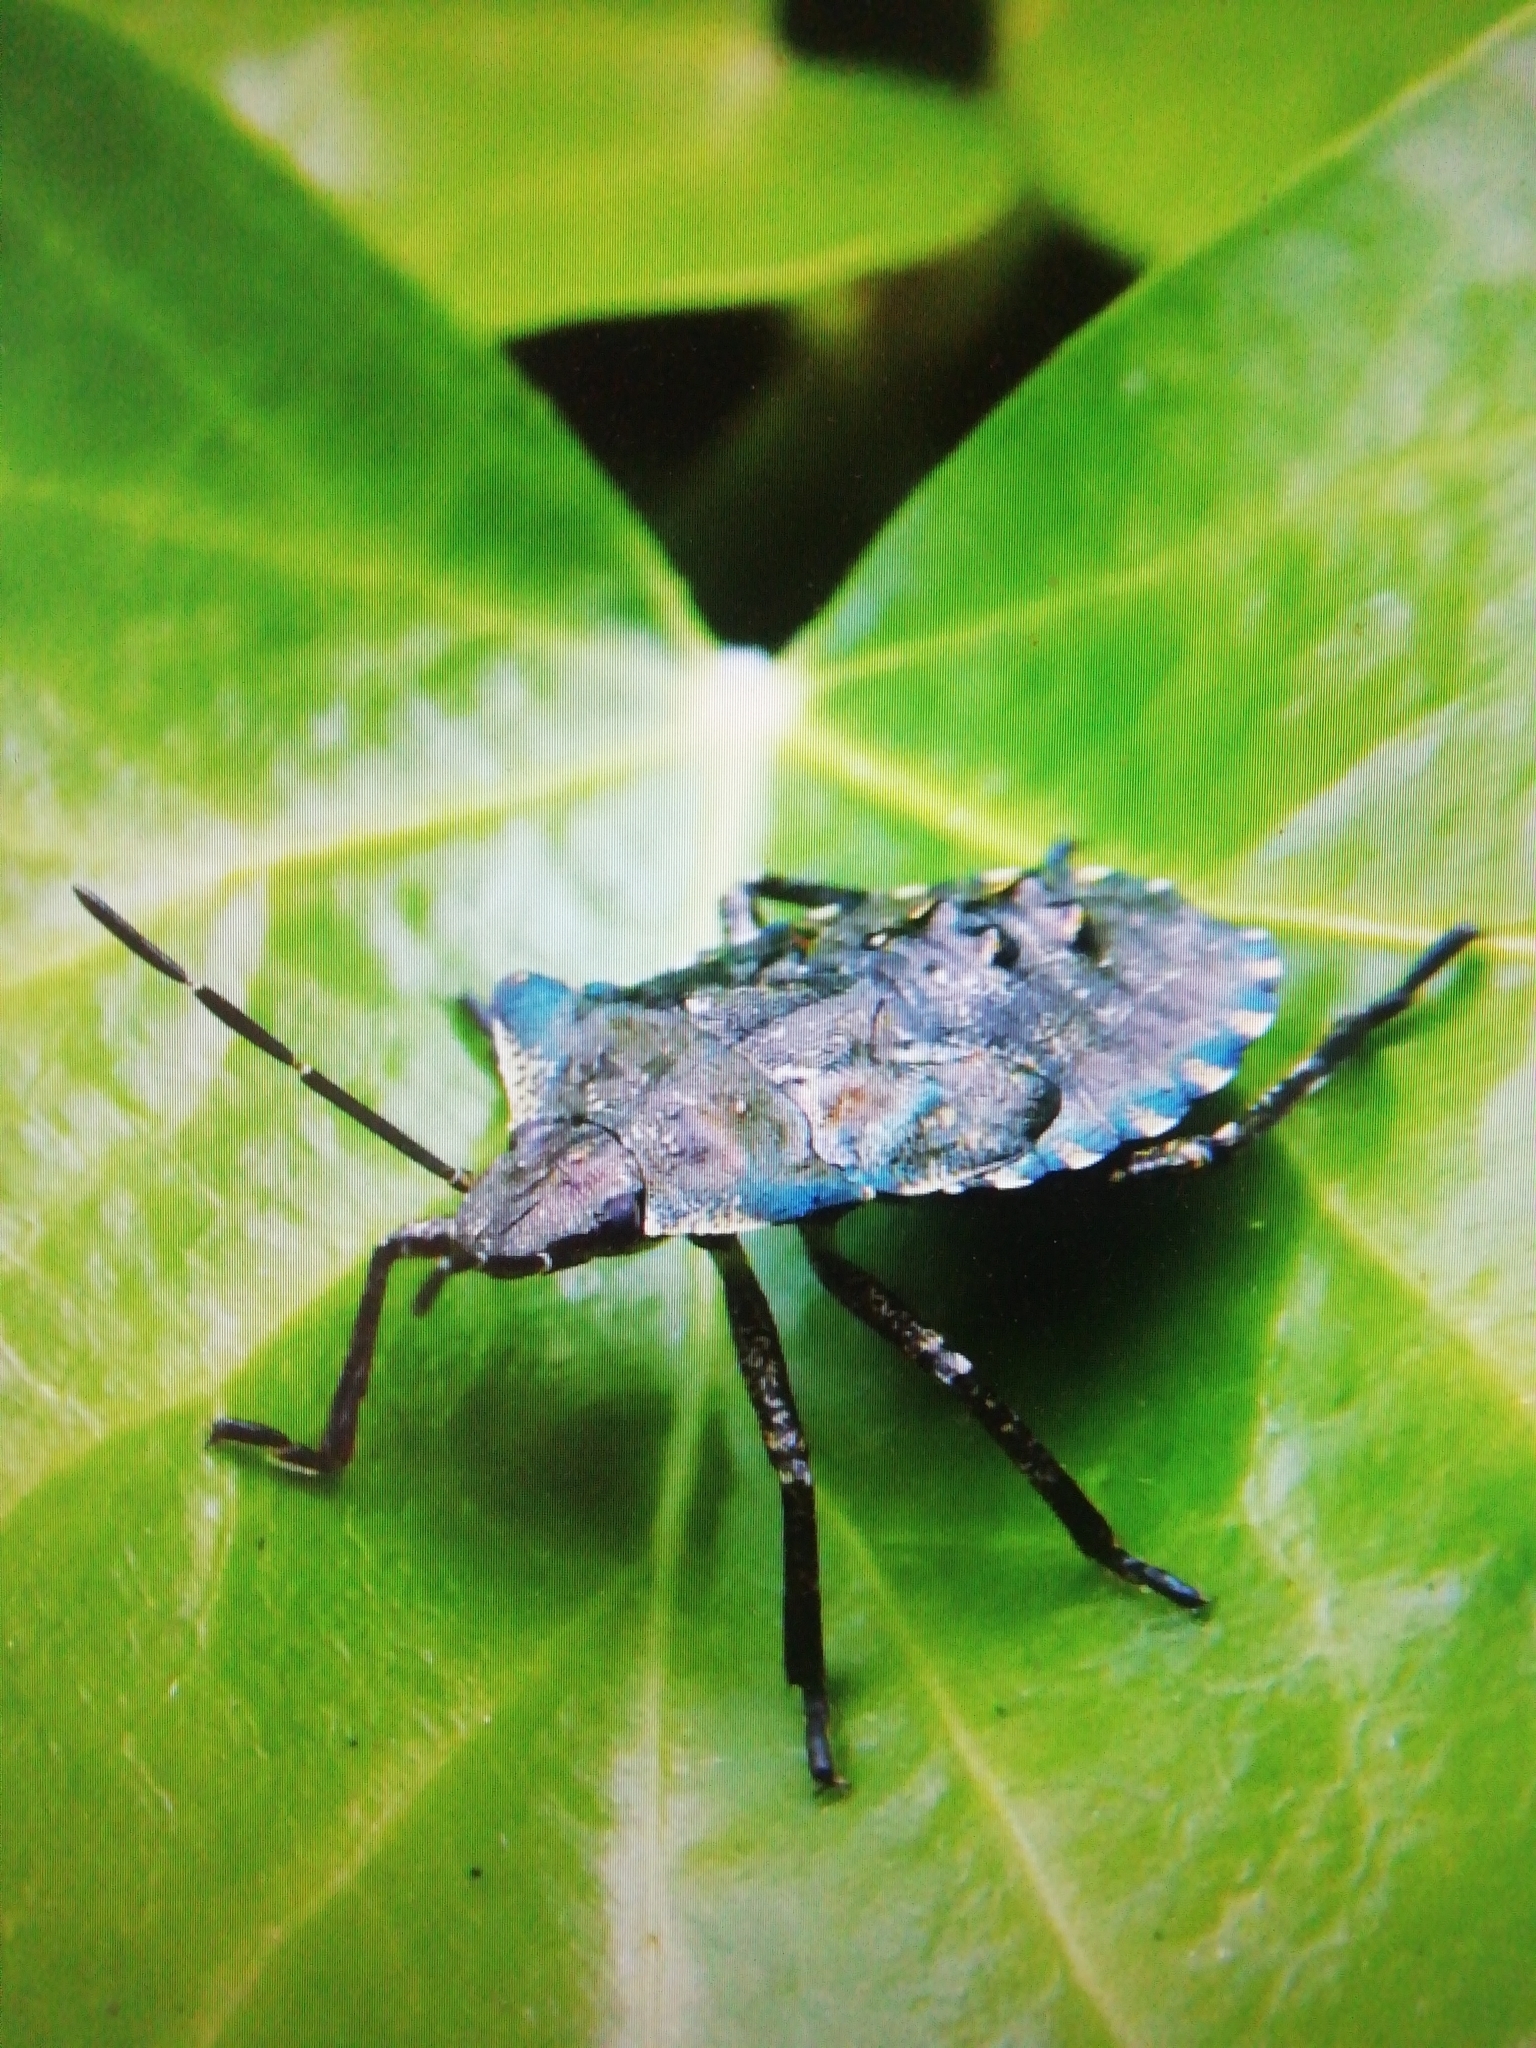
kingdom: Animalia
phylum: Arthropoda
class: Insecta
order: Hemiptera
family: Pentatomidae
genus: Pentatoma
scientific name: Pentatoma rufipes
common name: Forest bug
